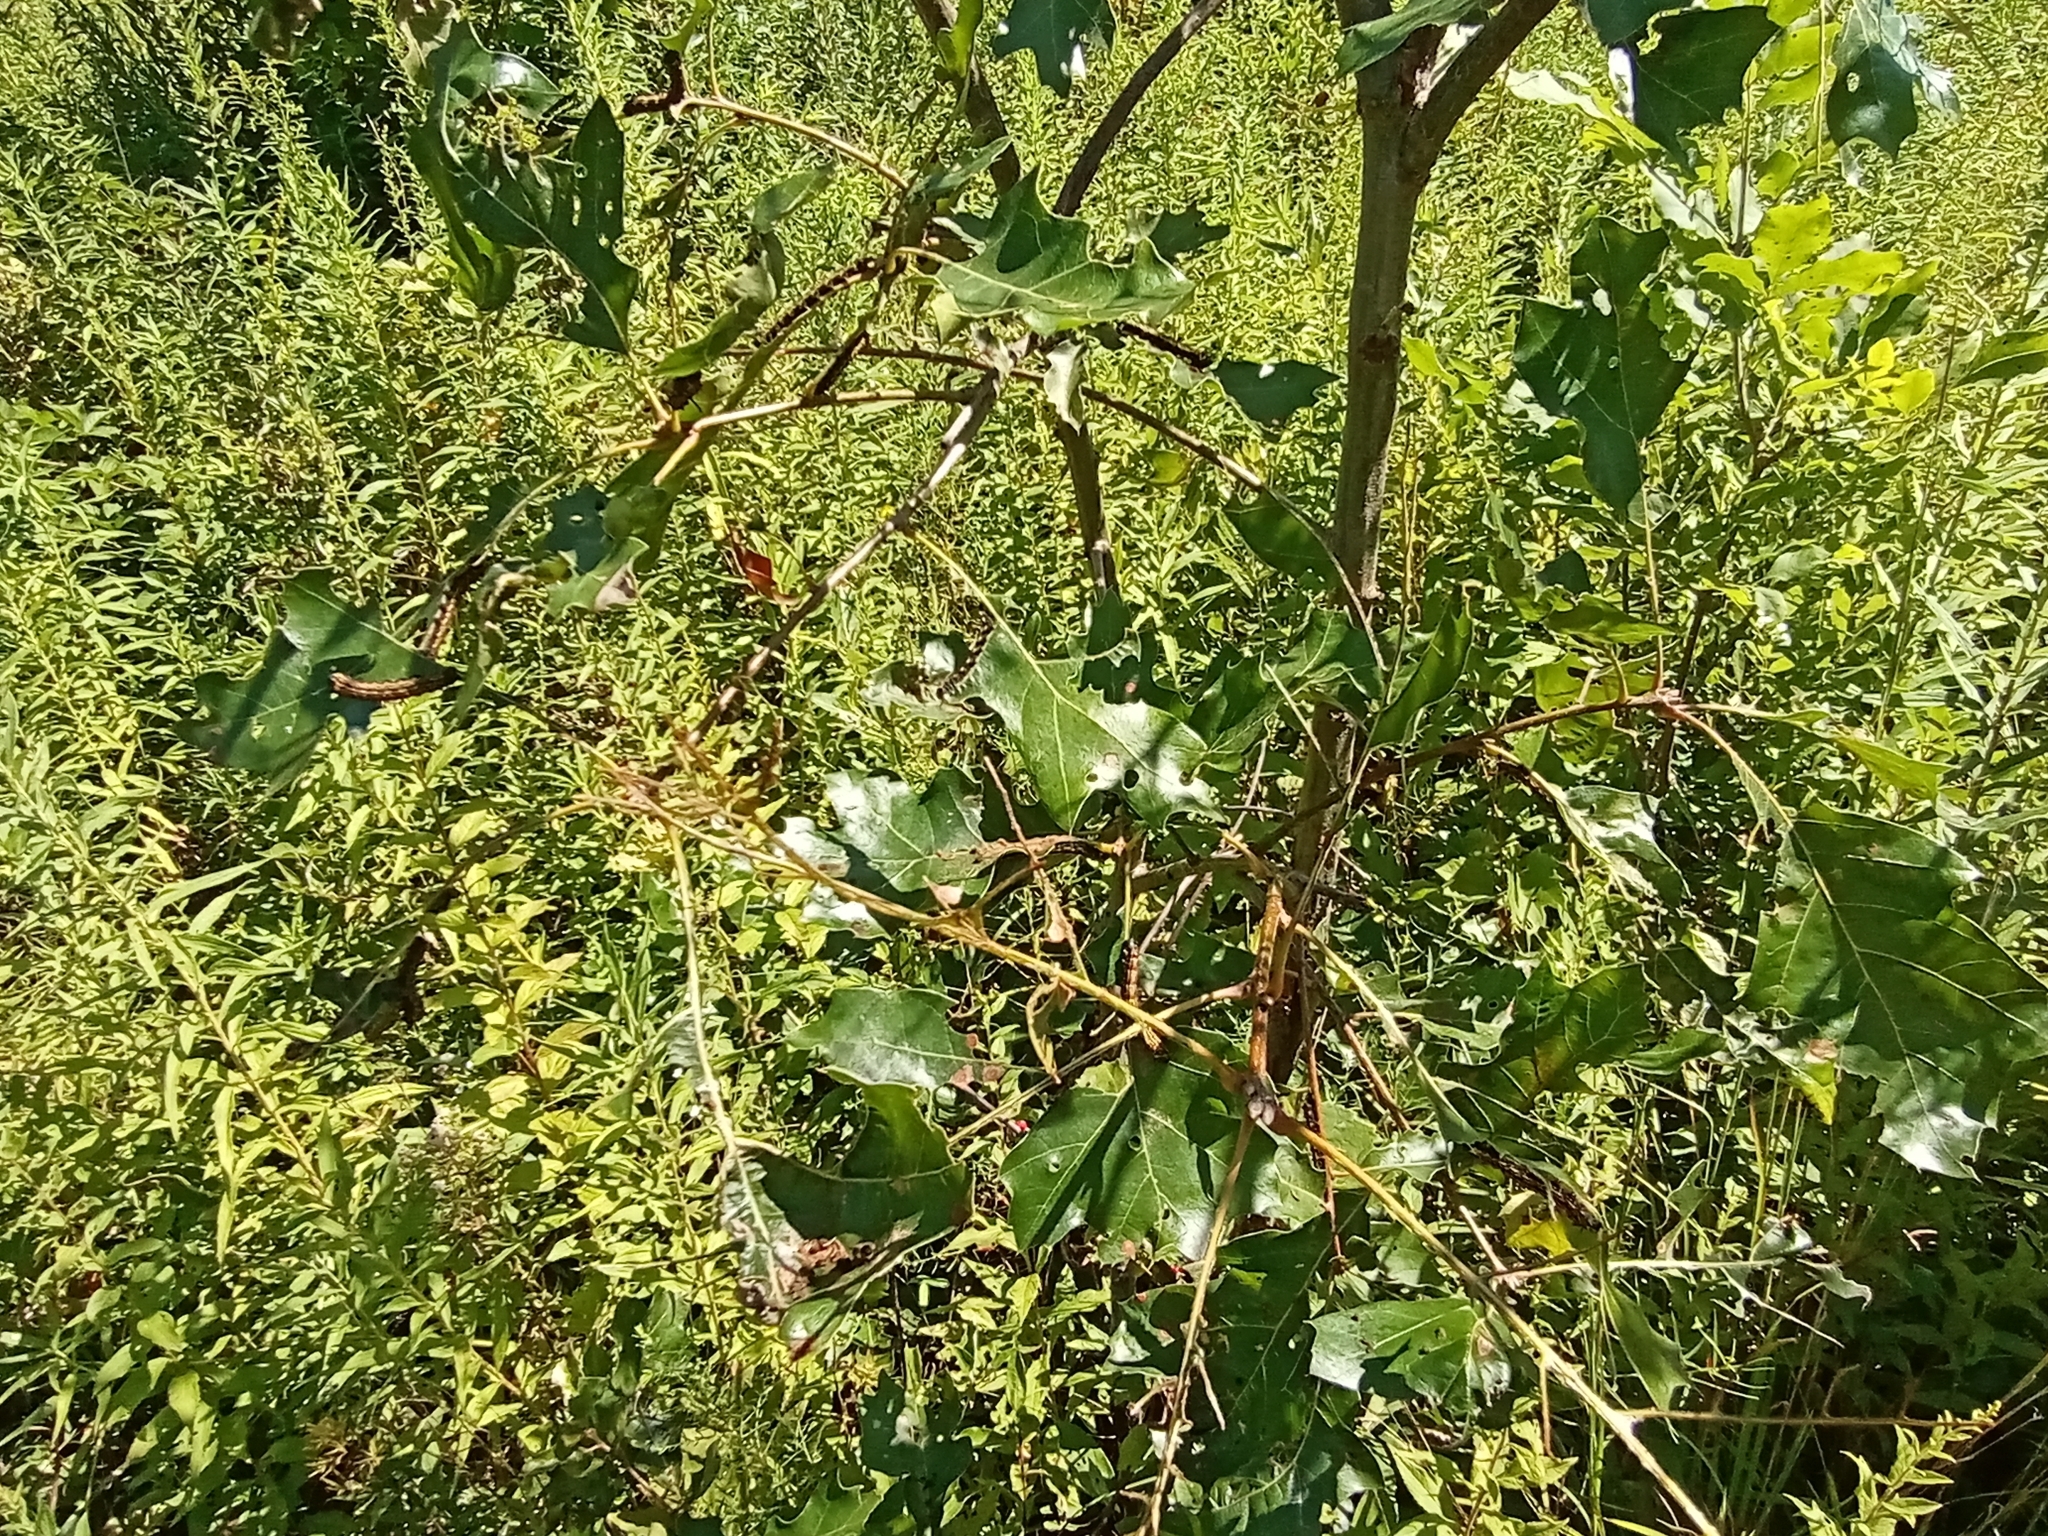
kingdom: Animalia
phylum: Arthropoda
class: Insecta
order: Lepidoptera
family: Saturniidae
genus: Anisota
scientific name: Anisota senatoria
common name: Orange-striped oakworm moth
